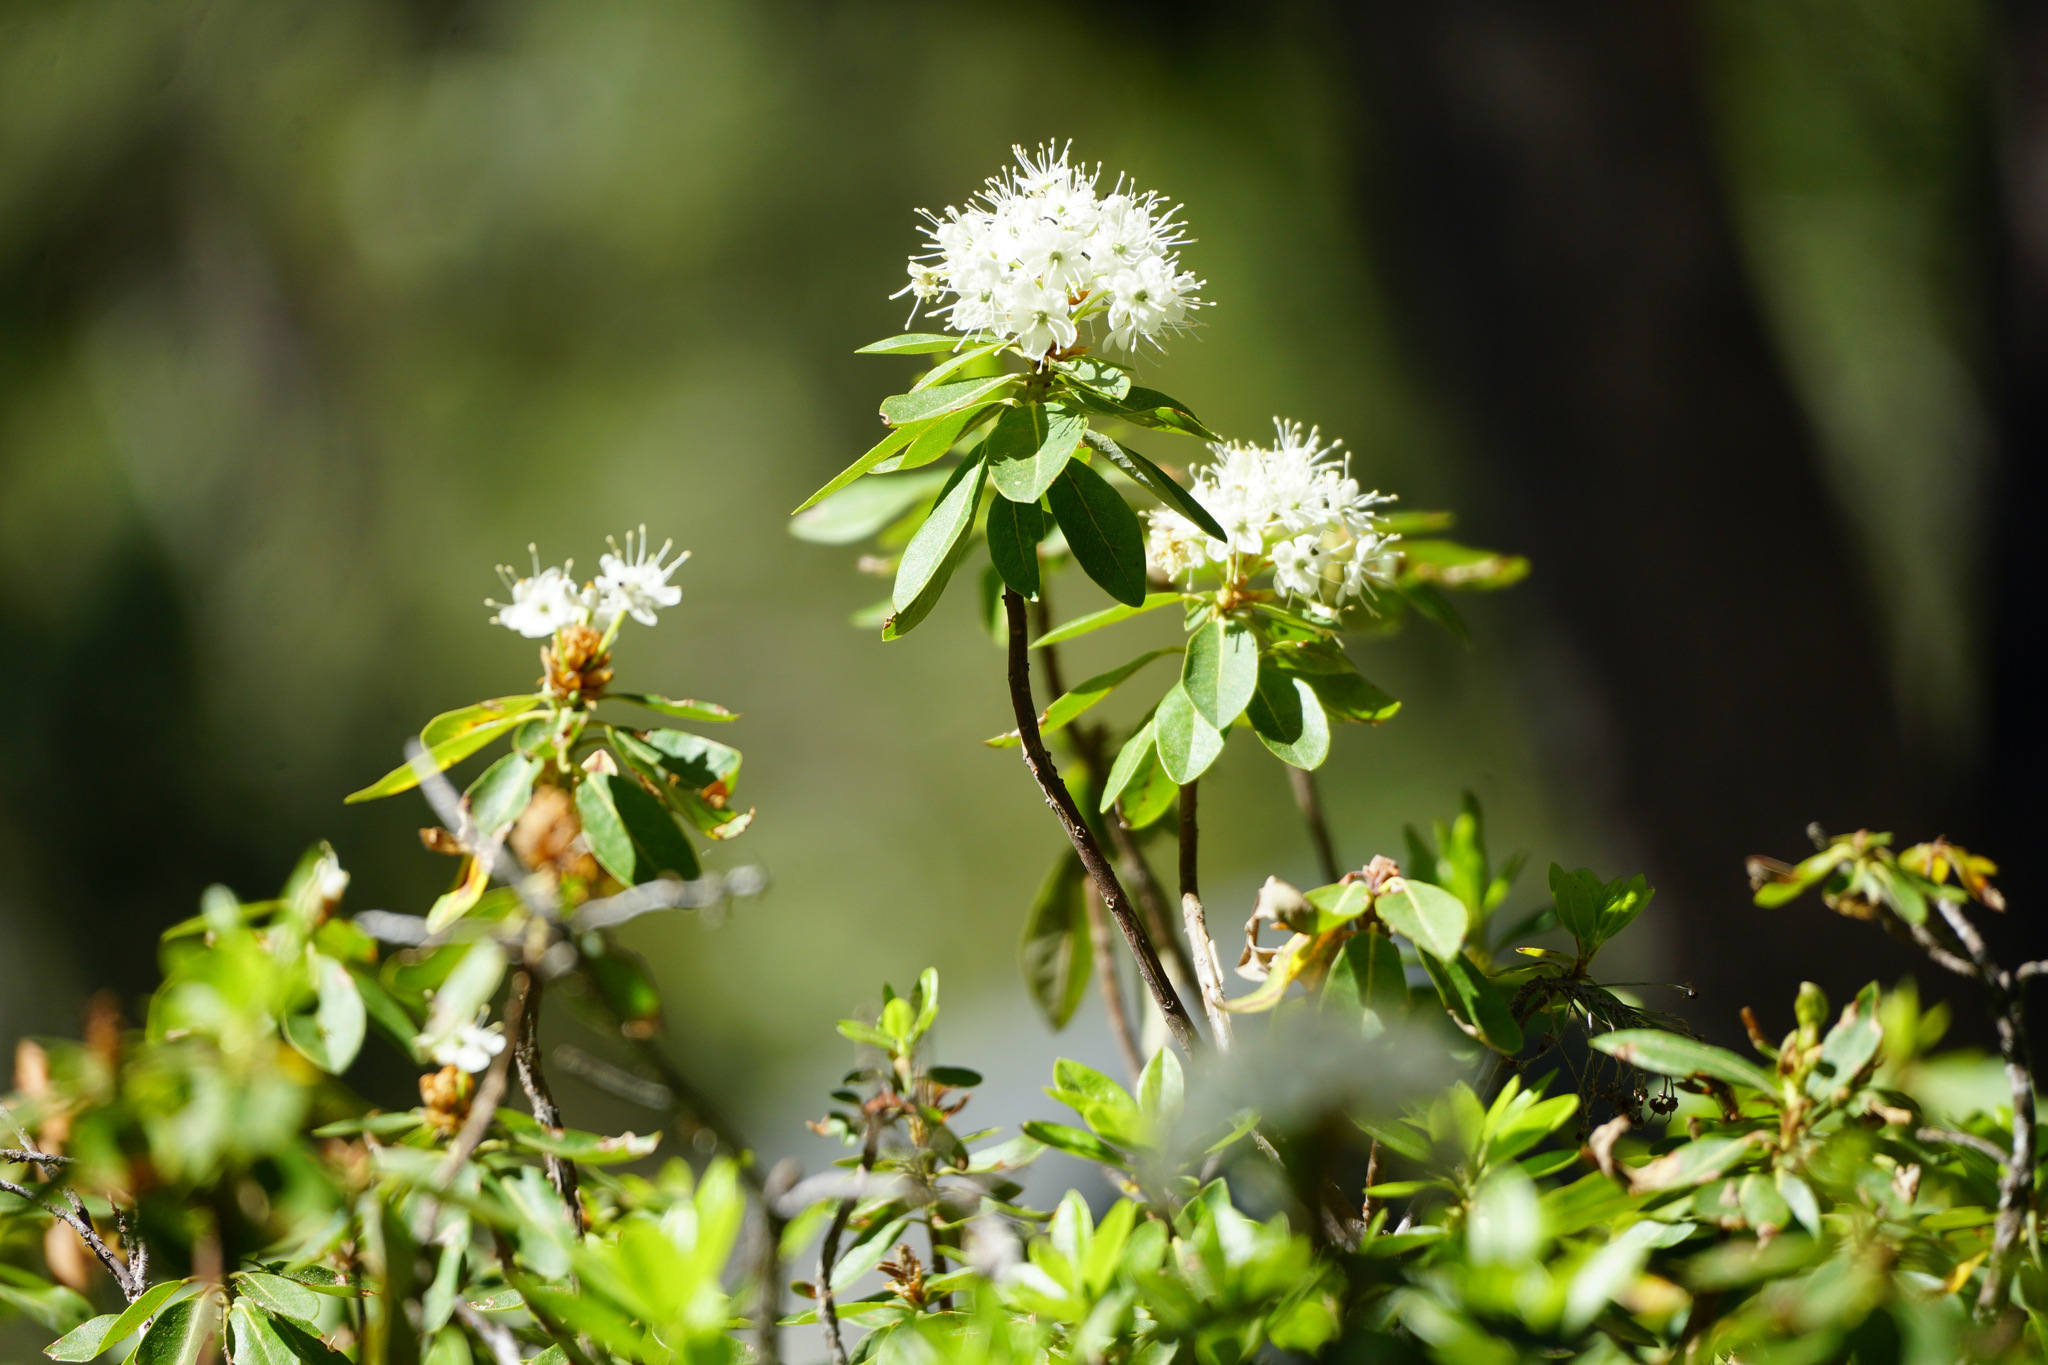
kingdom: Plantae
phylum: Tracheophyta
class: Magnoliopsida
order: Ericales
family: Ericaceae
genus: Rhododendron
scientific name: Rhododendron columbianum
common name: Western labrador tea
